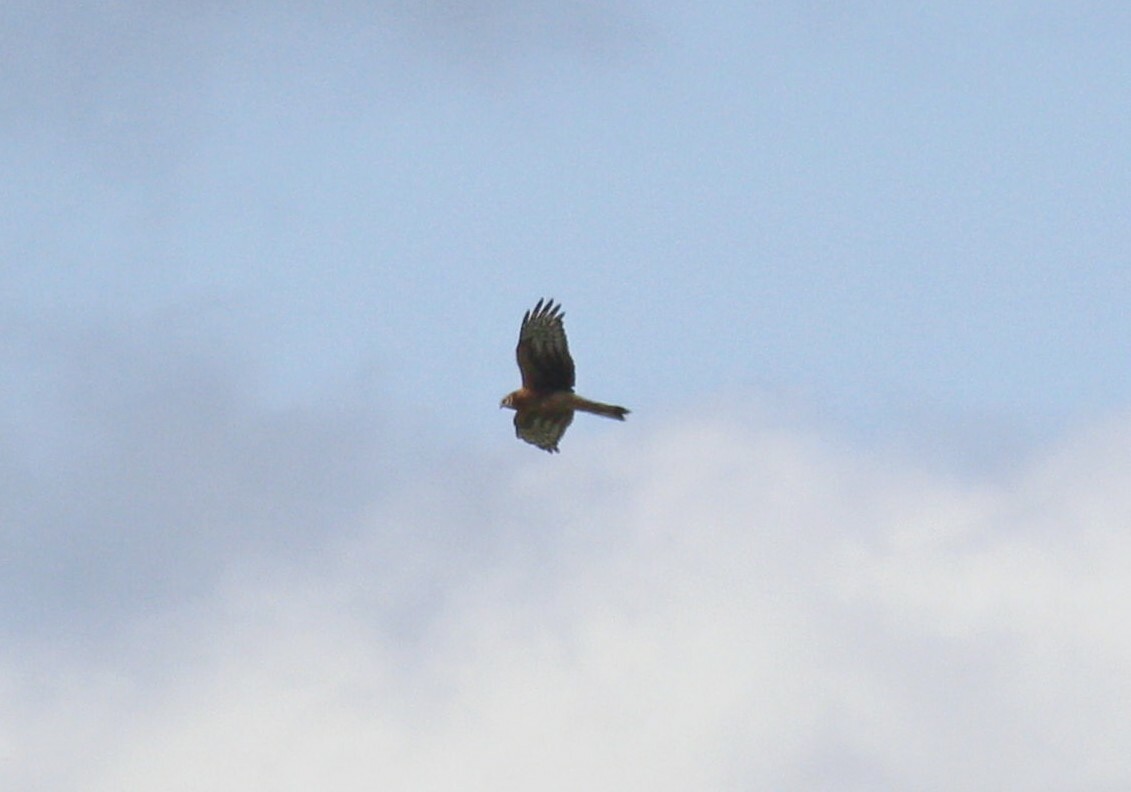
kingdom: Animalia
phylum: Chordata
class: Aves
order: Accipitriformes
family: Accipitridae
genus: Circus
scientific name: Circus cyaneus
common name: Hen harrier
